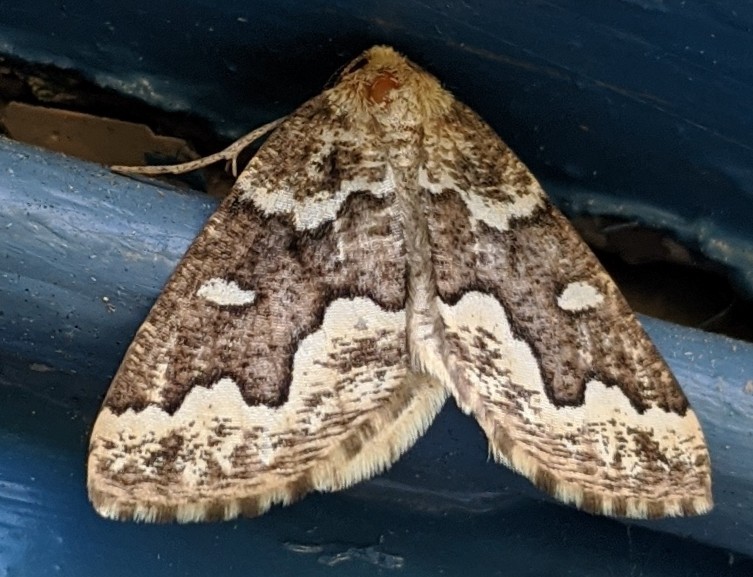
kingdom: Animalia
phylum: Arthropoda
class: Insecta
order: Lepidoptera
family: Geometridae
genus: Caripeta
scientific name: Caripeta divisata
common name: Gray spruce looper
